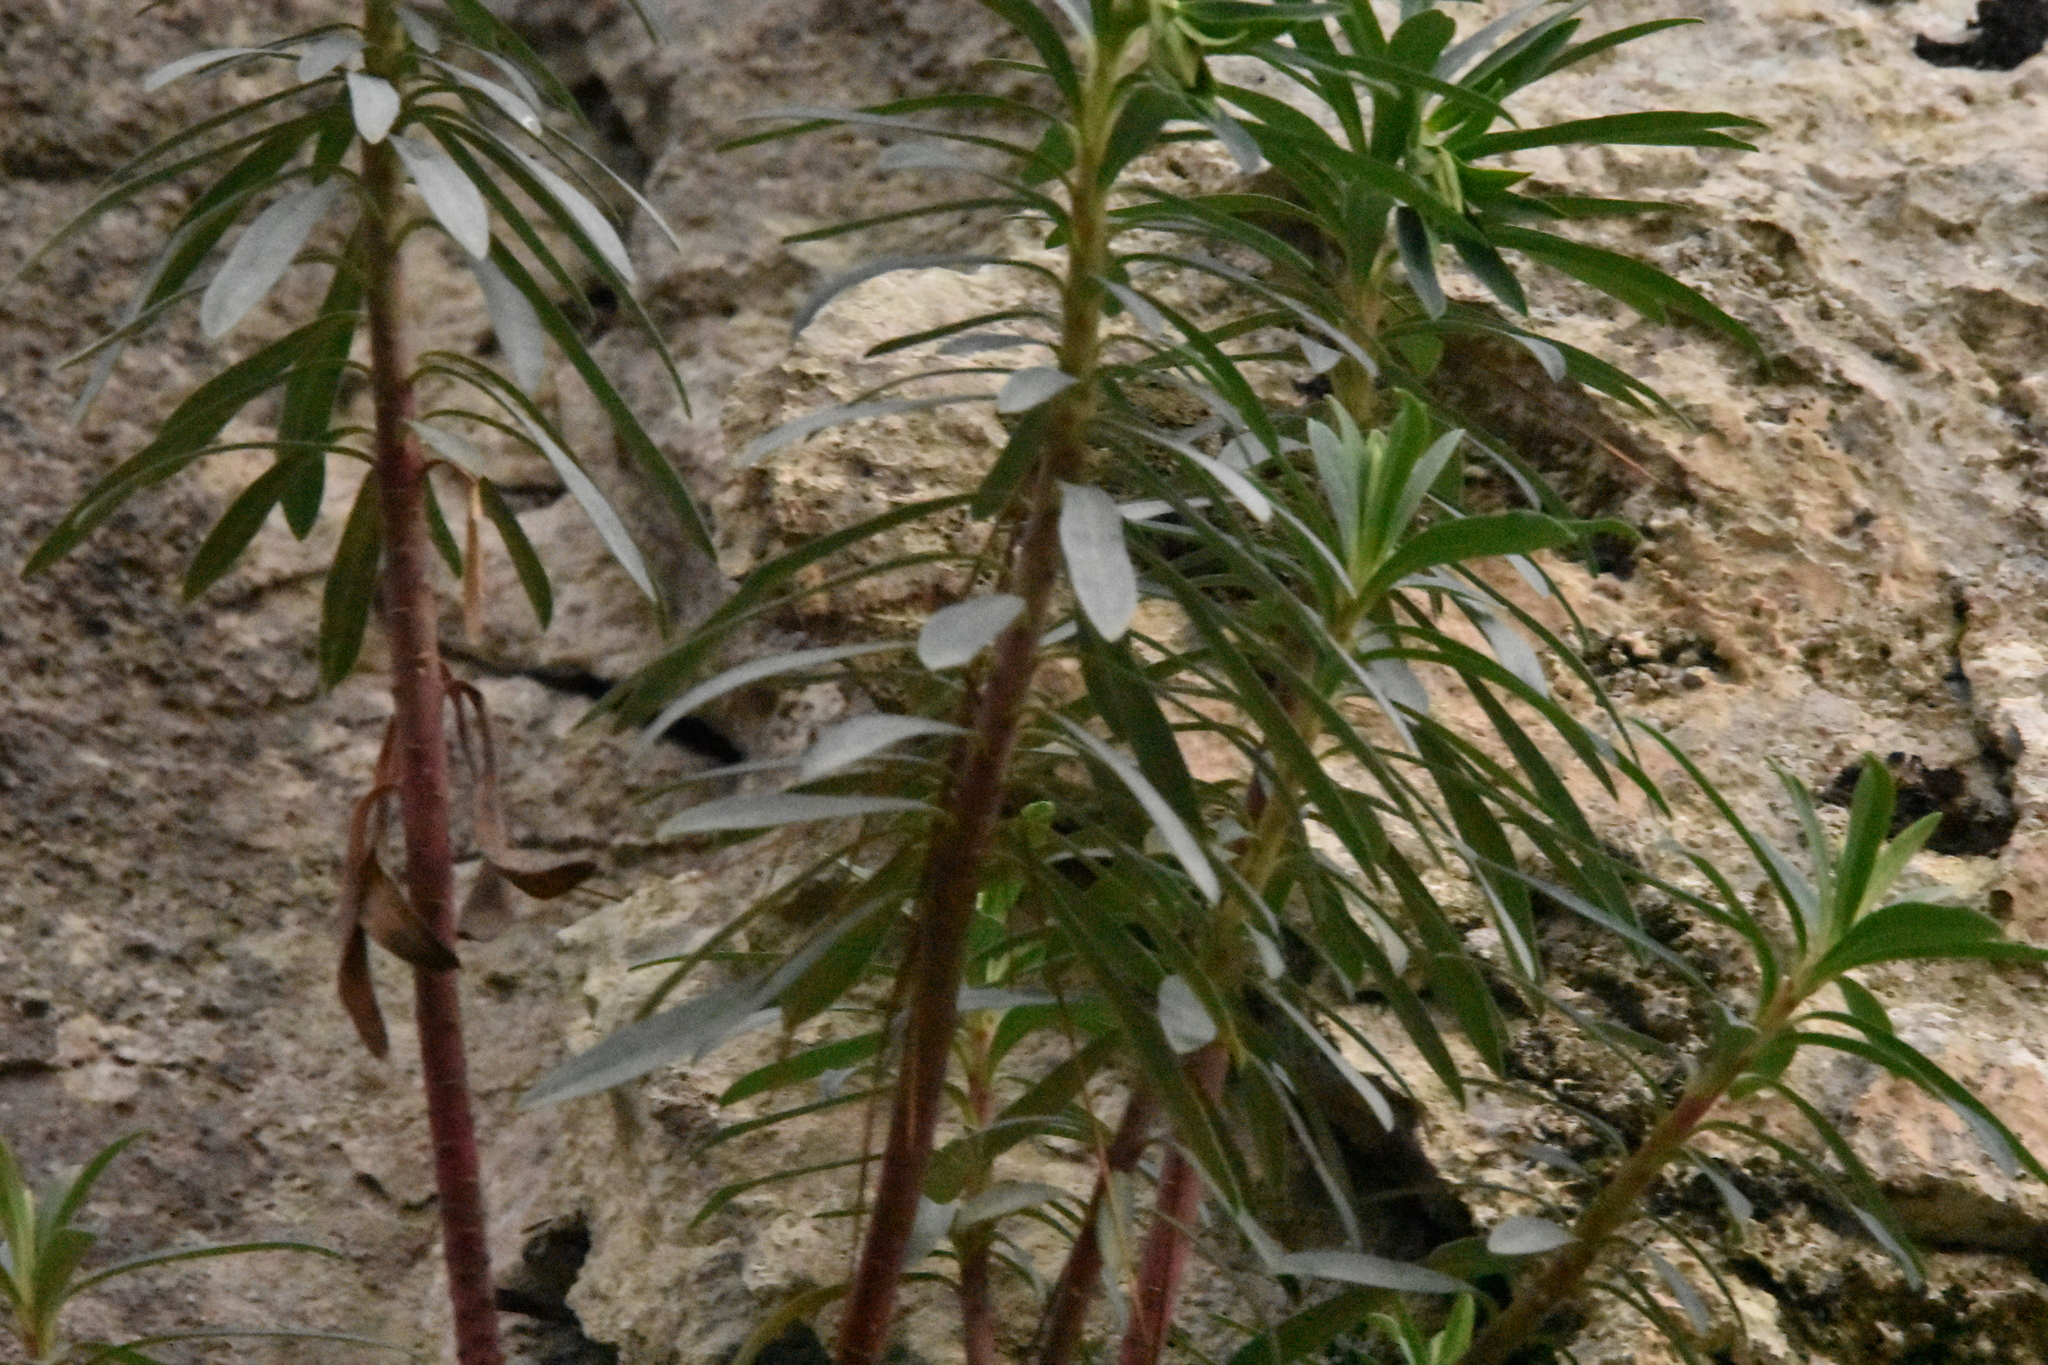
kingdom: Plantae
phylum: Tracheophyta
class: Magnoliopsida
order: Malpighiales
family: Euphorbiaceae
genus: Euphorbia
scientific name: Euphorbia characias
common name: Mediterranean spurge
